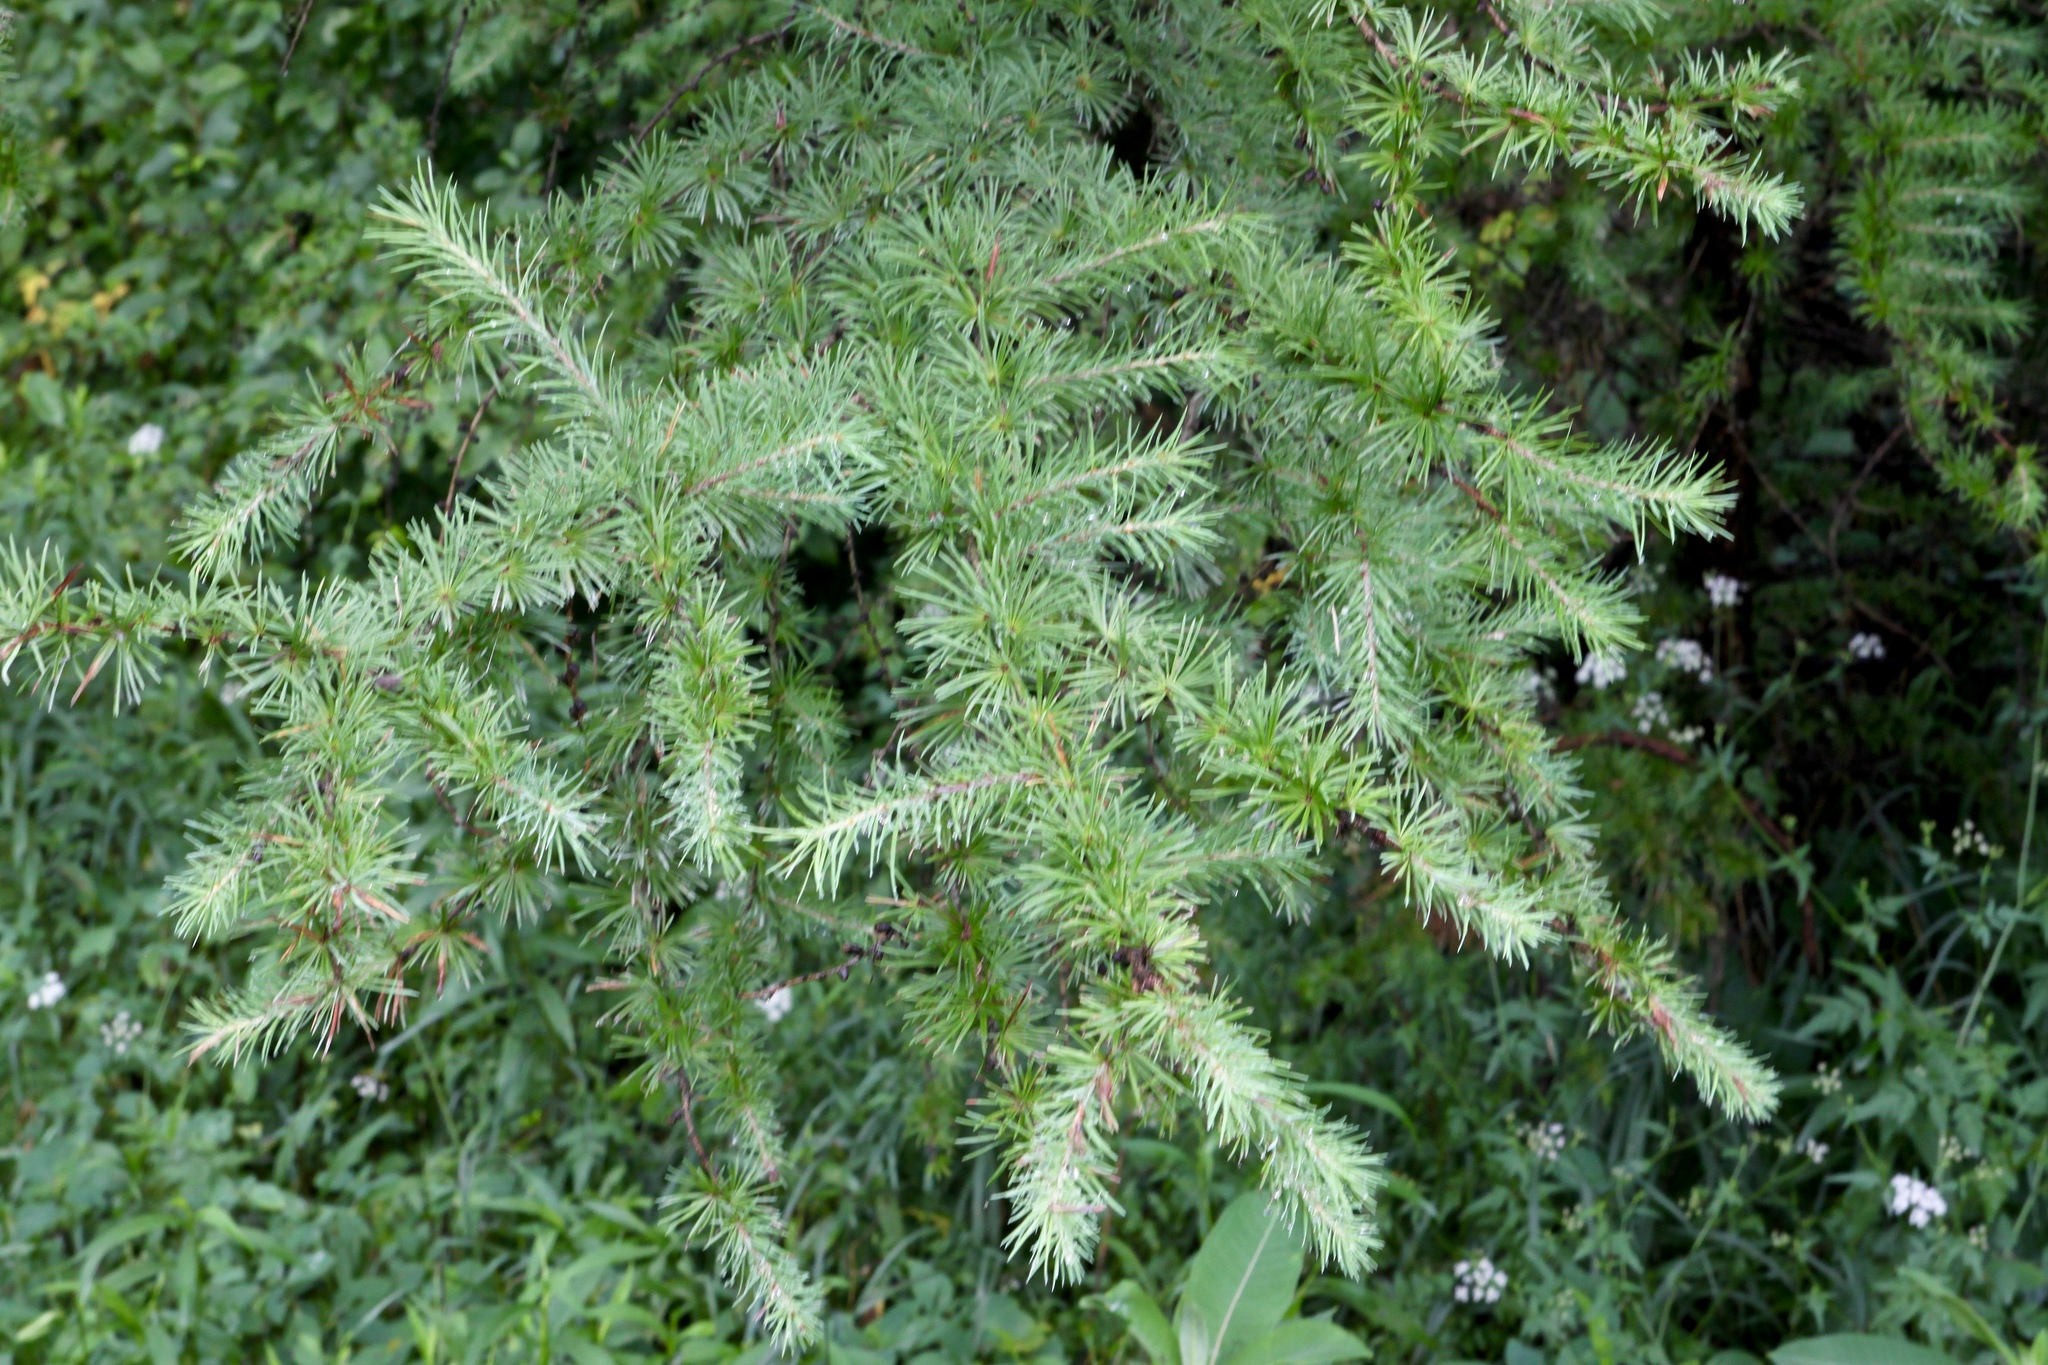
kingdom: Plantae
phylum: Tracheophyta
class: Pinopsida
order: Pinales
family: Pinaceae
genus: Larix
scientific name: Larix decidua
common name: European larch
